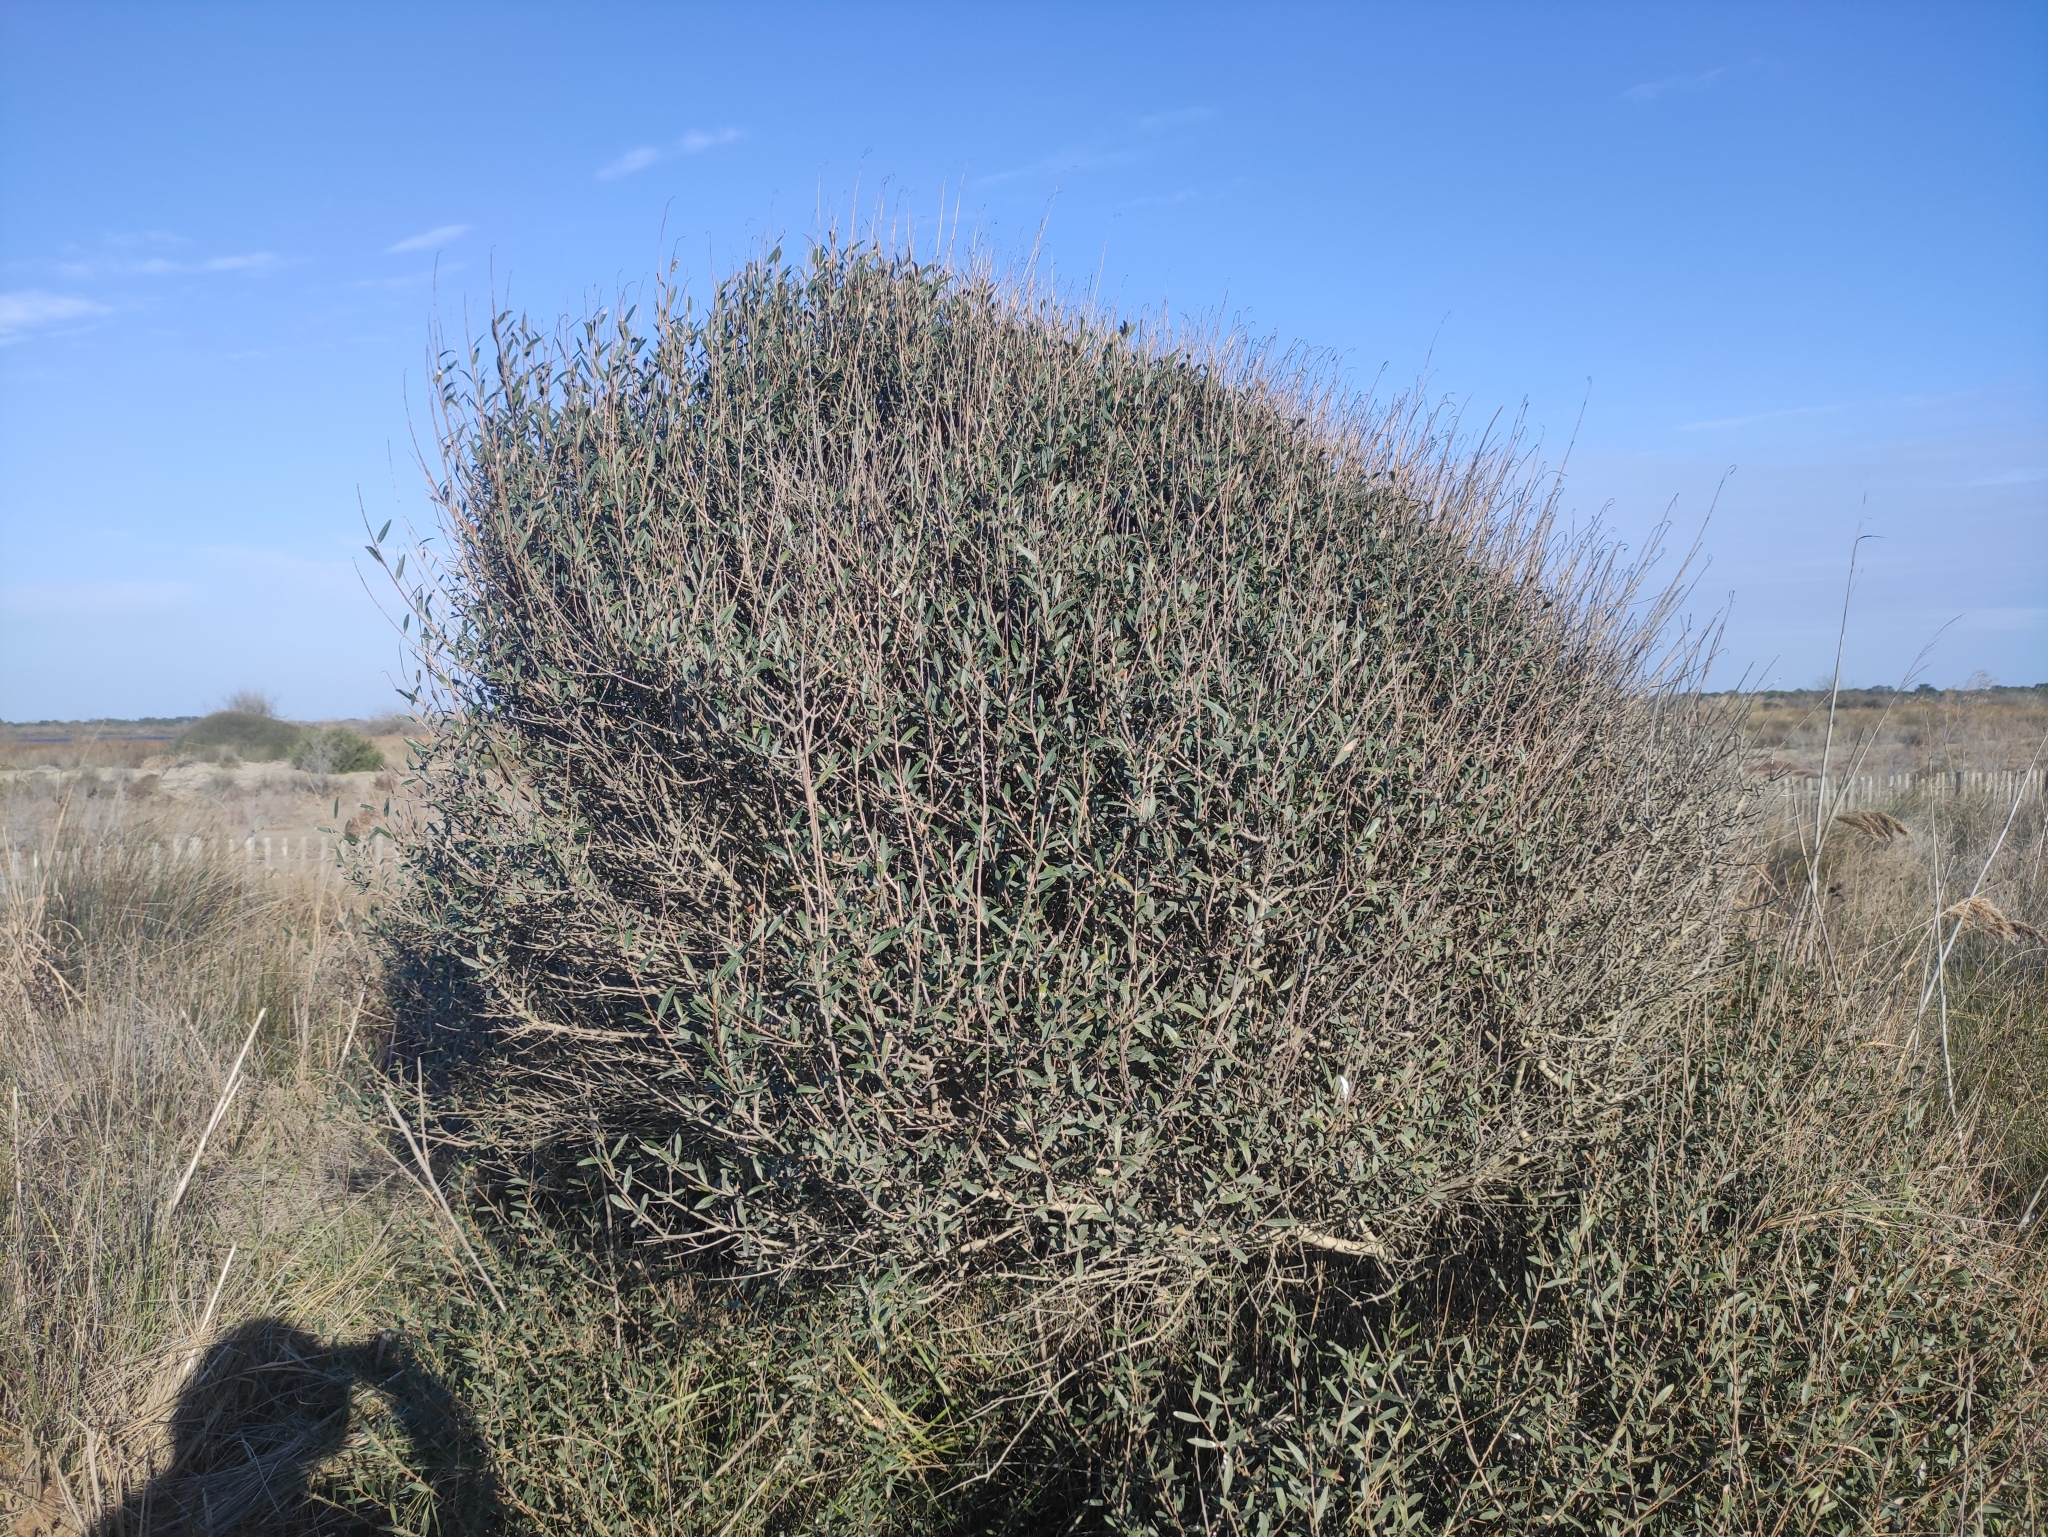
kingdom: Plantae
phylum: Tracheophyta
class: Magnoliopsida
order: Lamiales
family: Oleaceae
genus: Phillyrea
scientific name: Phillyrea angustifolia
